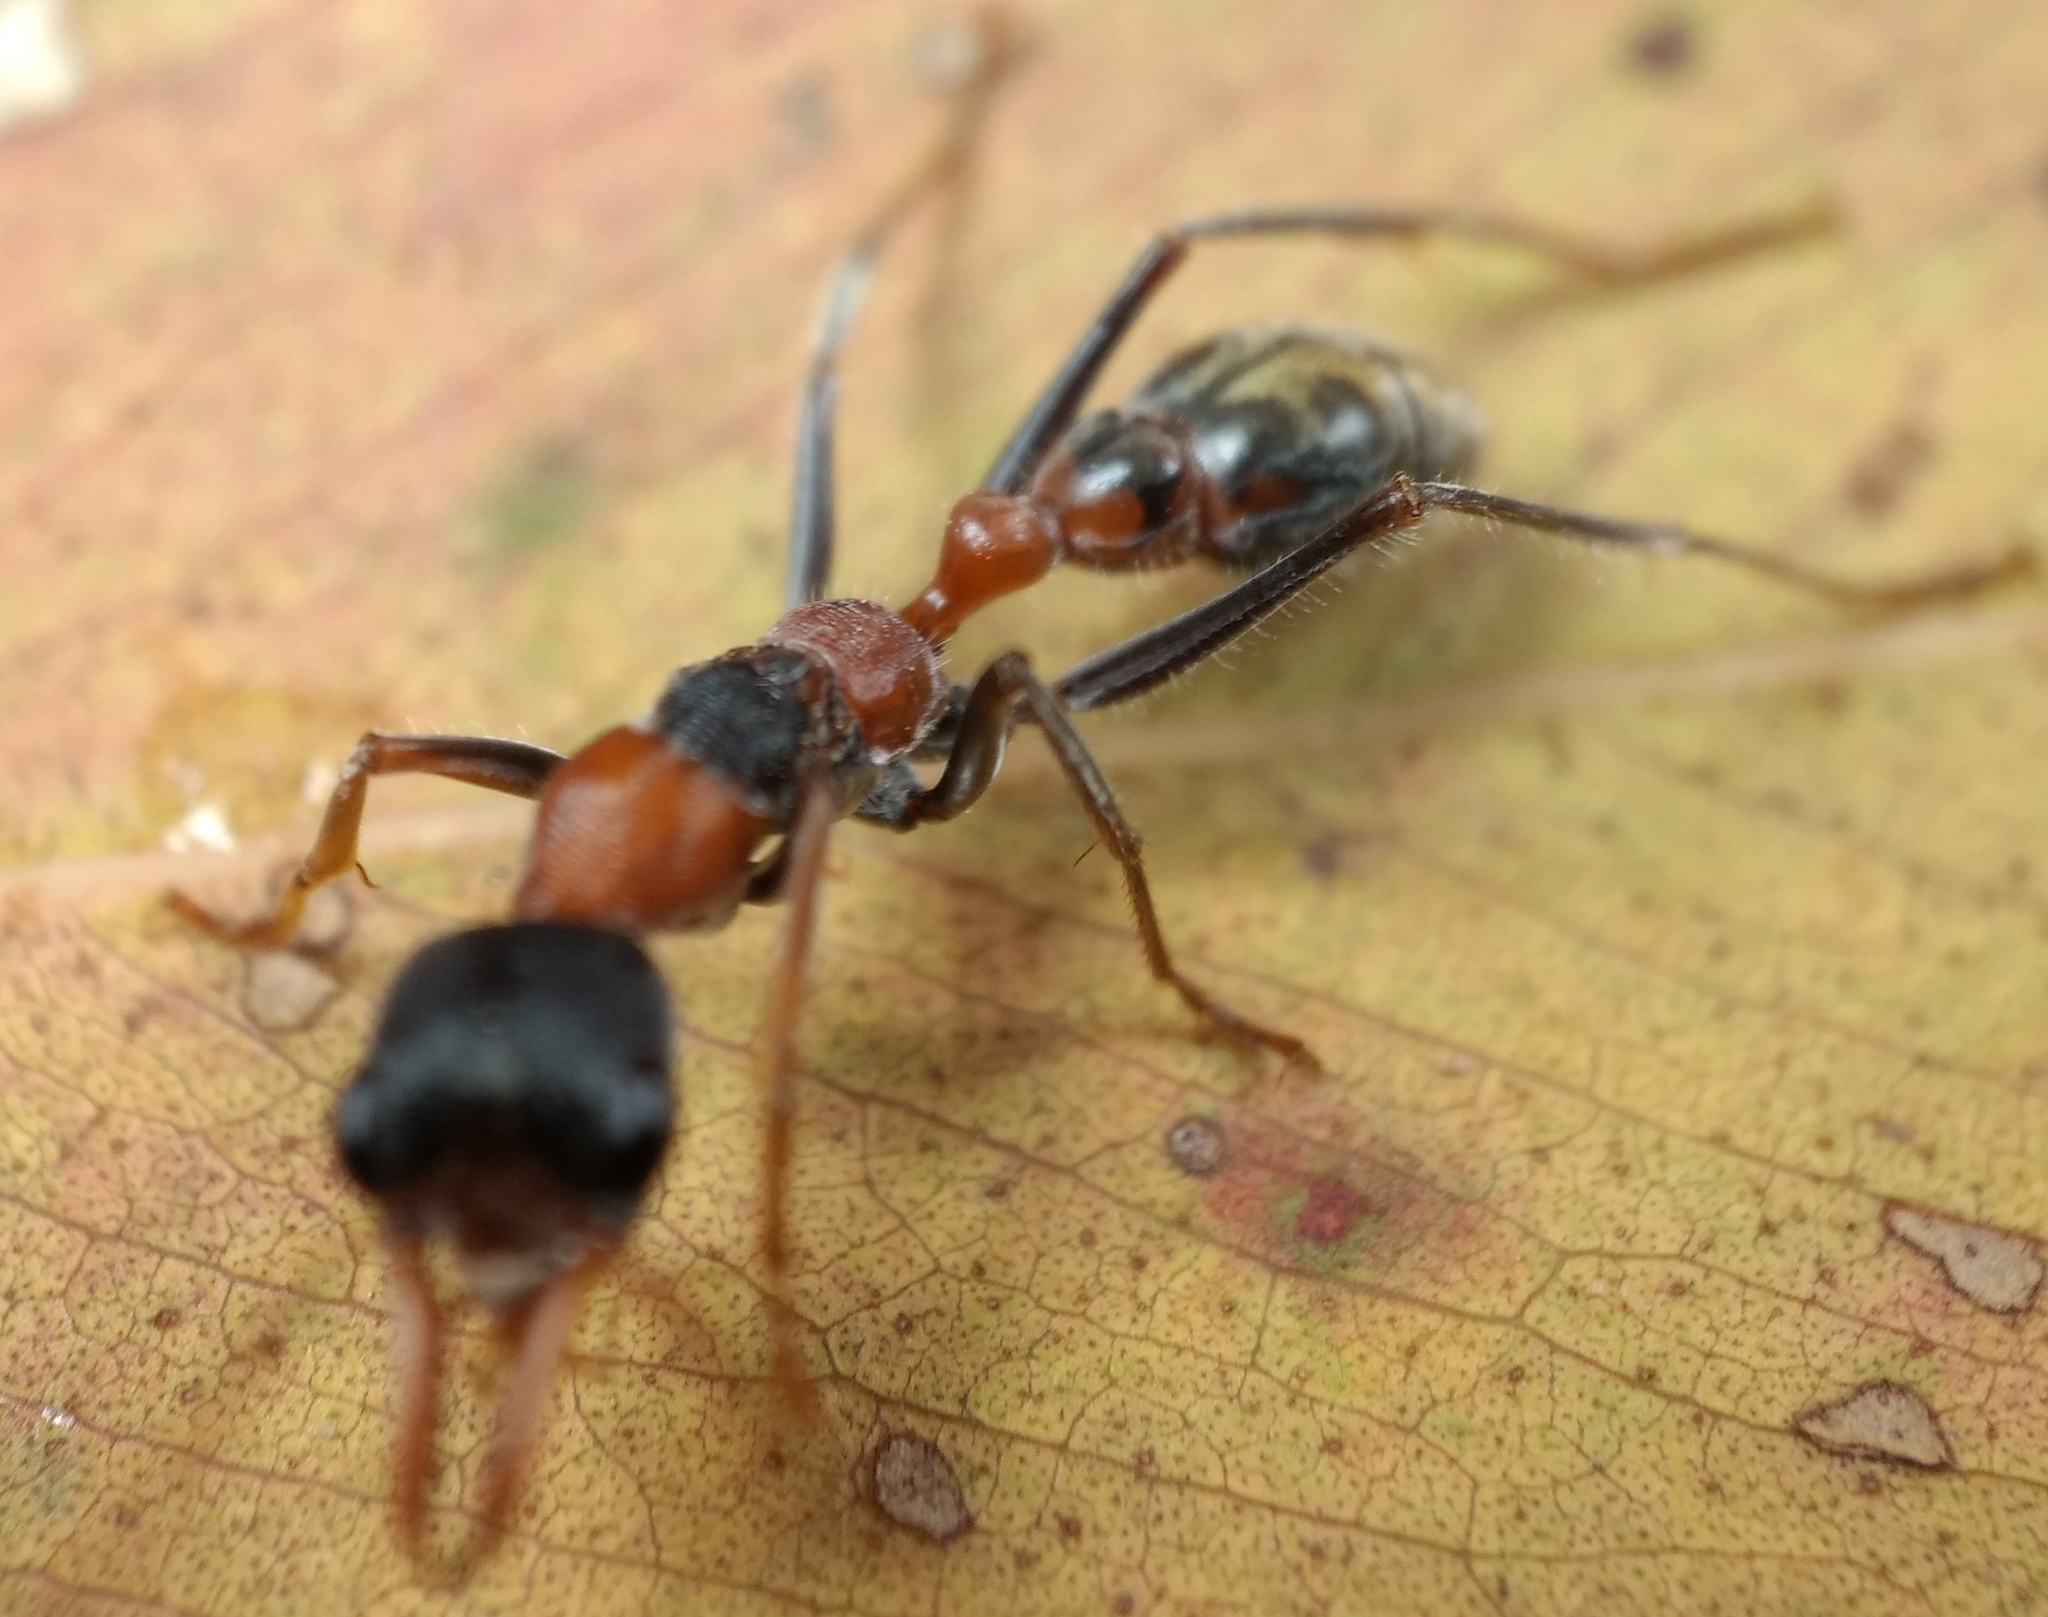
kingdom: Animalia
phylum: Arthropoda
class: Insecta
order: Hymenoptera
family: Formicidae
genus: Myrmecia
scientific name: Myrmecia nigrocincta
